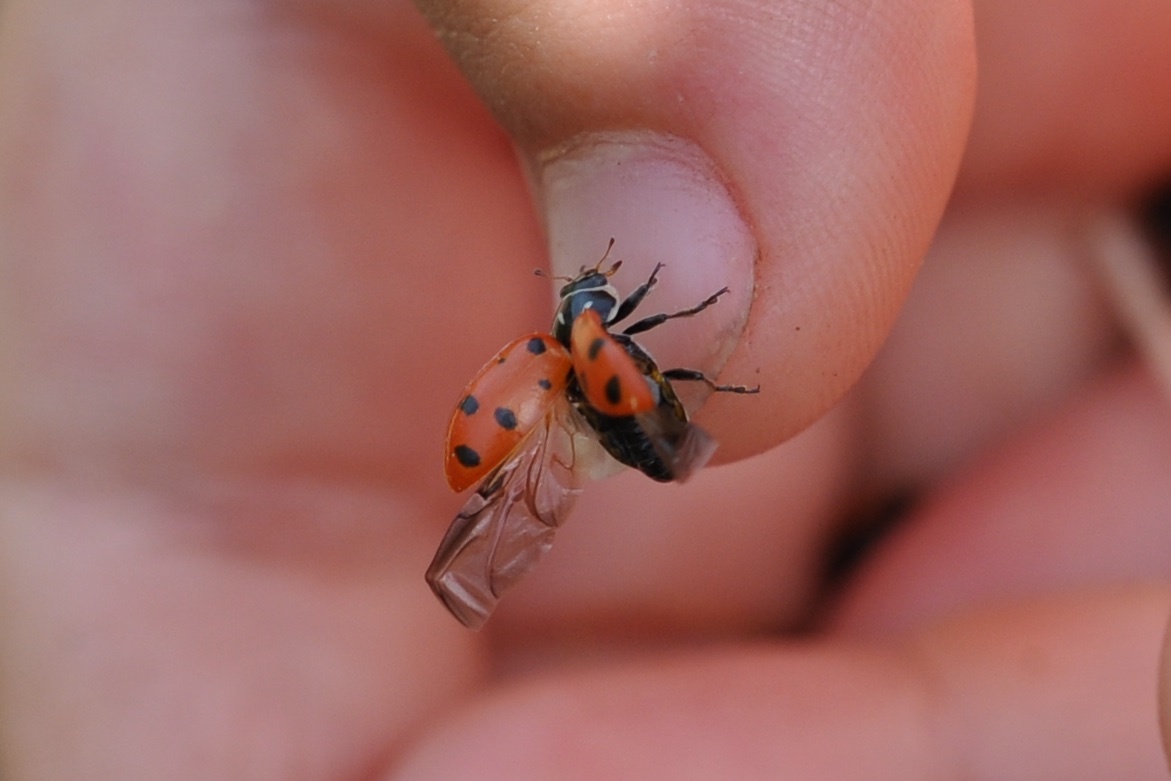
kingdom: Animalia
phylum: Arthropoda
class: Insecta
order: Coleoptera
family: Coccinellidae
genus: Hippodamia
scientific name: Hippodamia convergens
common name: Convergent lady beetle
